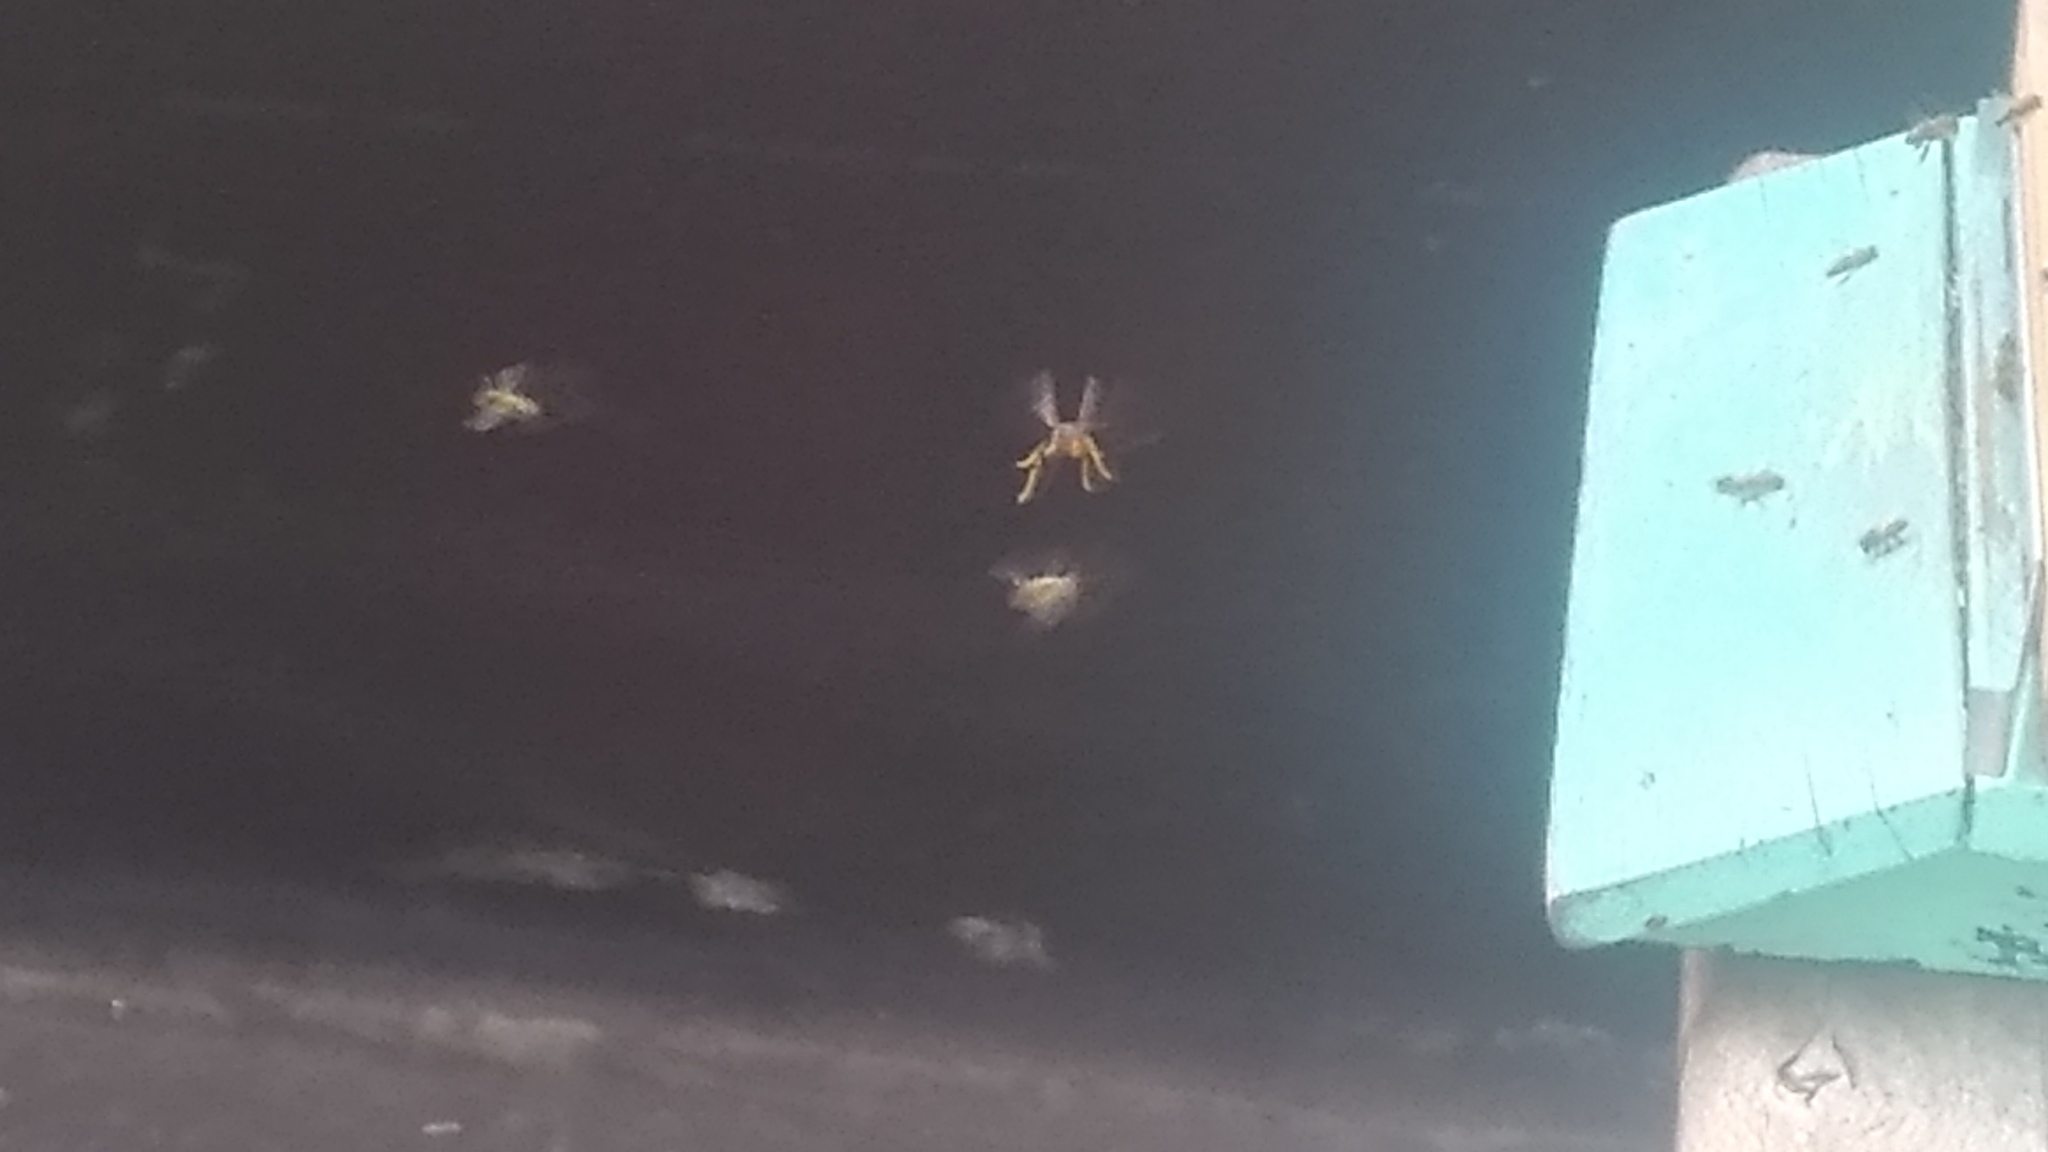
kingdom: Animalia
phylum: Arthropoda
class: Insecta
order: Hymenoptera
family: Vespidae
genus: Vespa
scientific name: Vespa velutina
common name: Asian hornet
